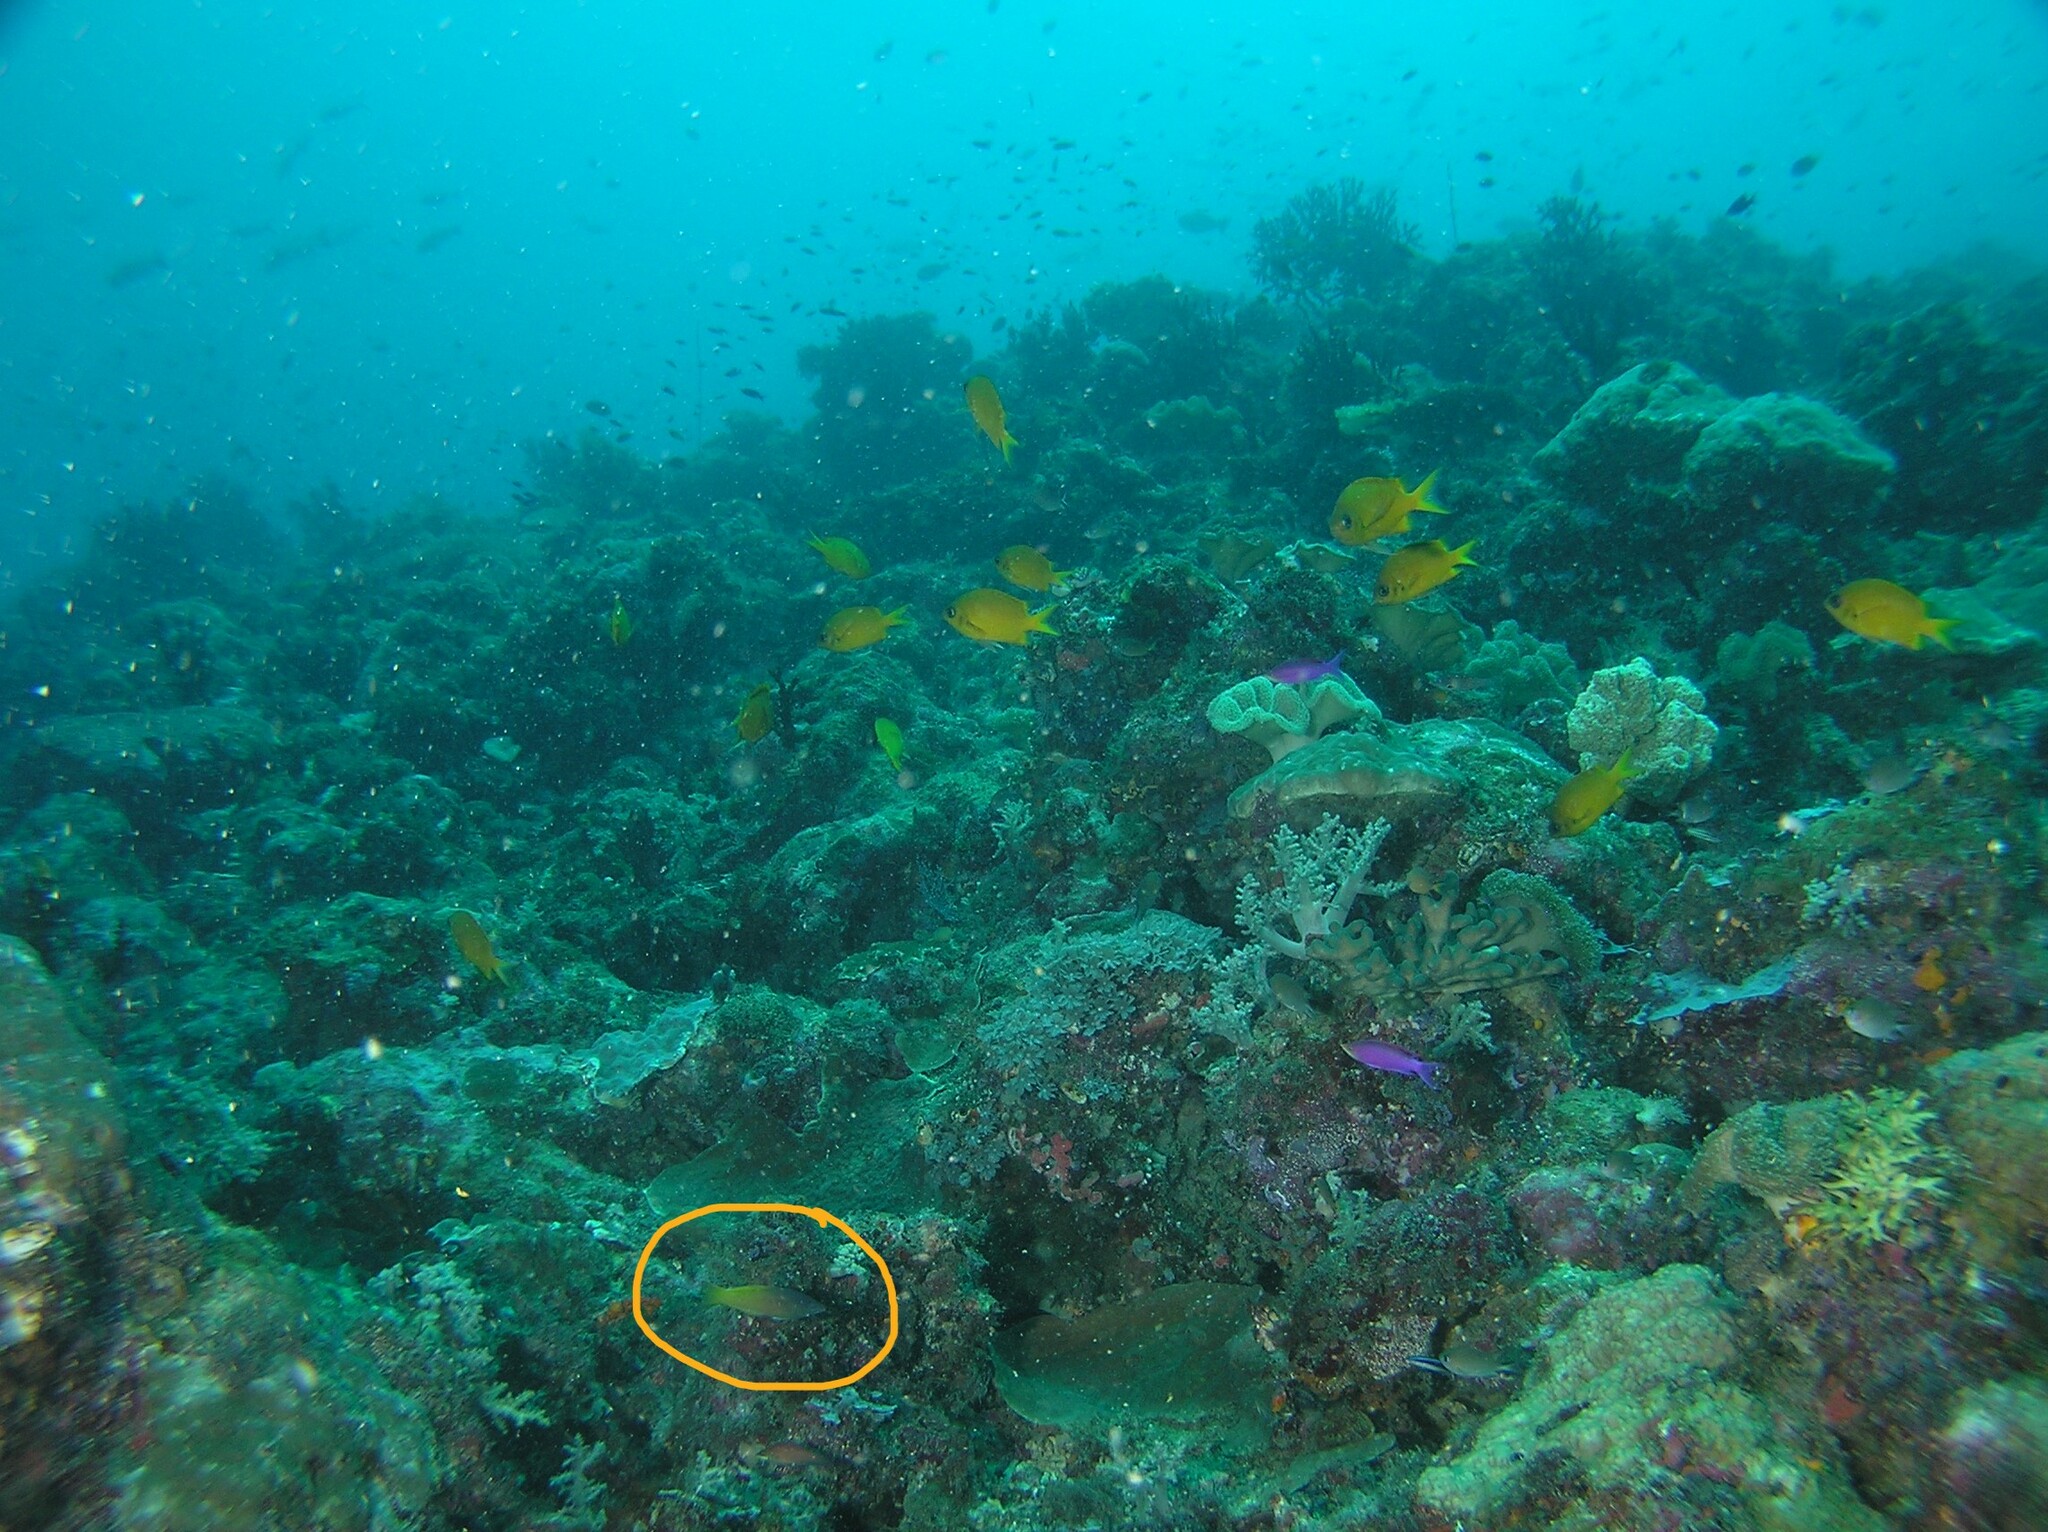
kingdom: Animalia
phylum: Chordata
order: Perciformes
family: Labridae
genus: Halichoeres
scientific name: Halichoeres prosopeion
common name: Half-grey wrasse
